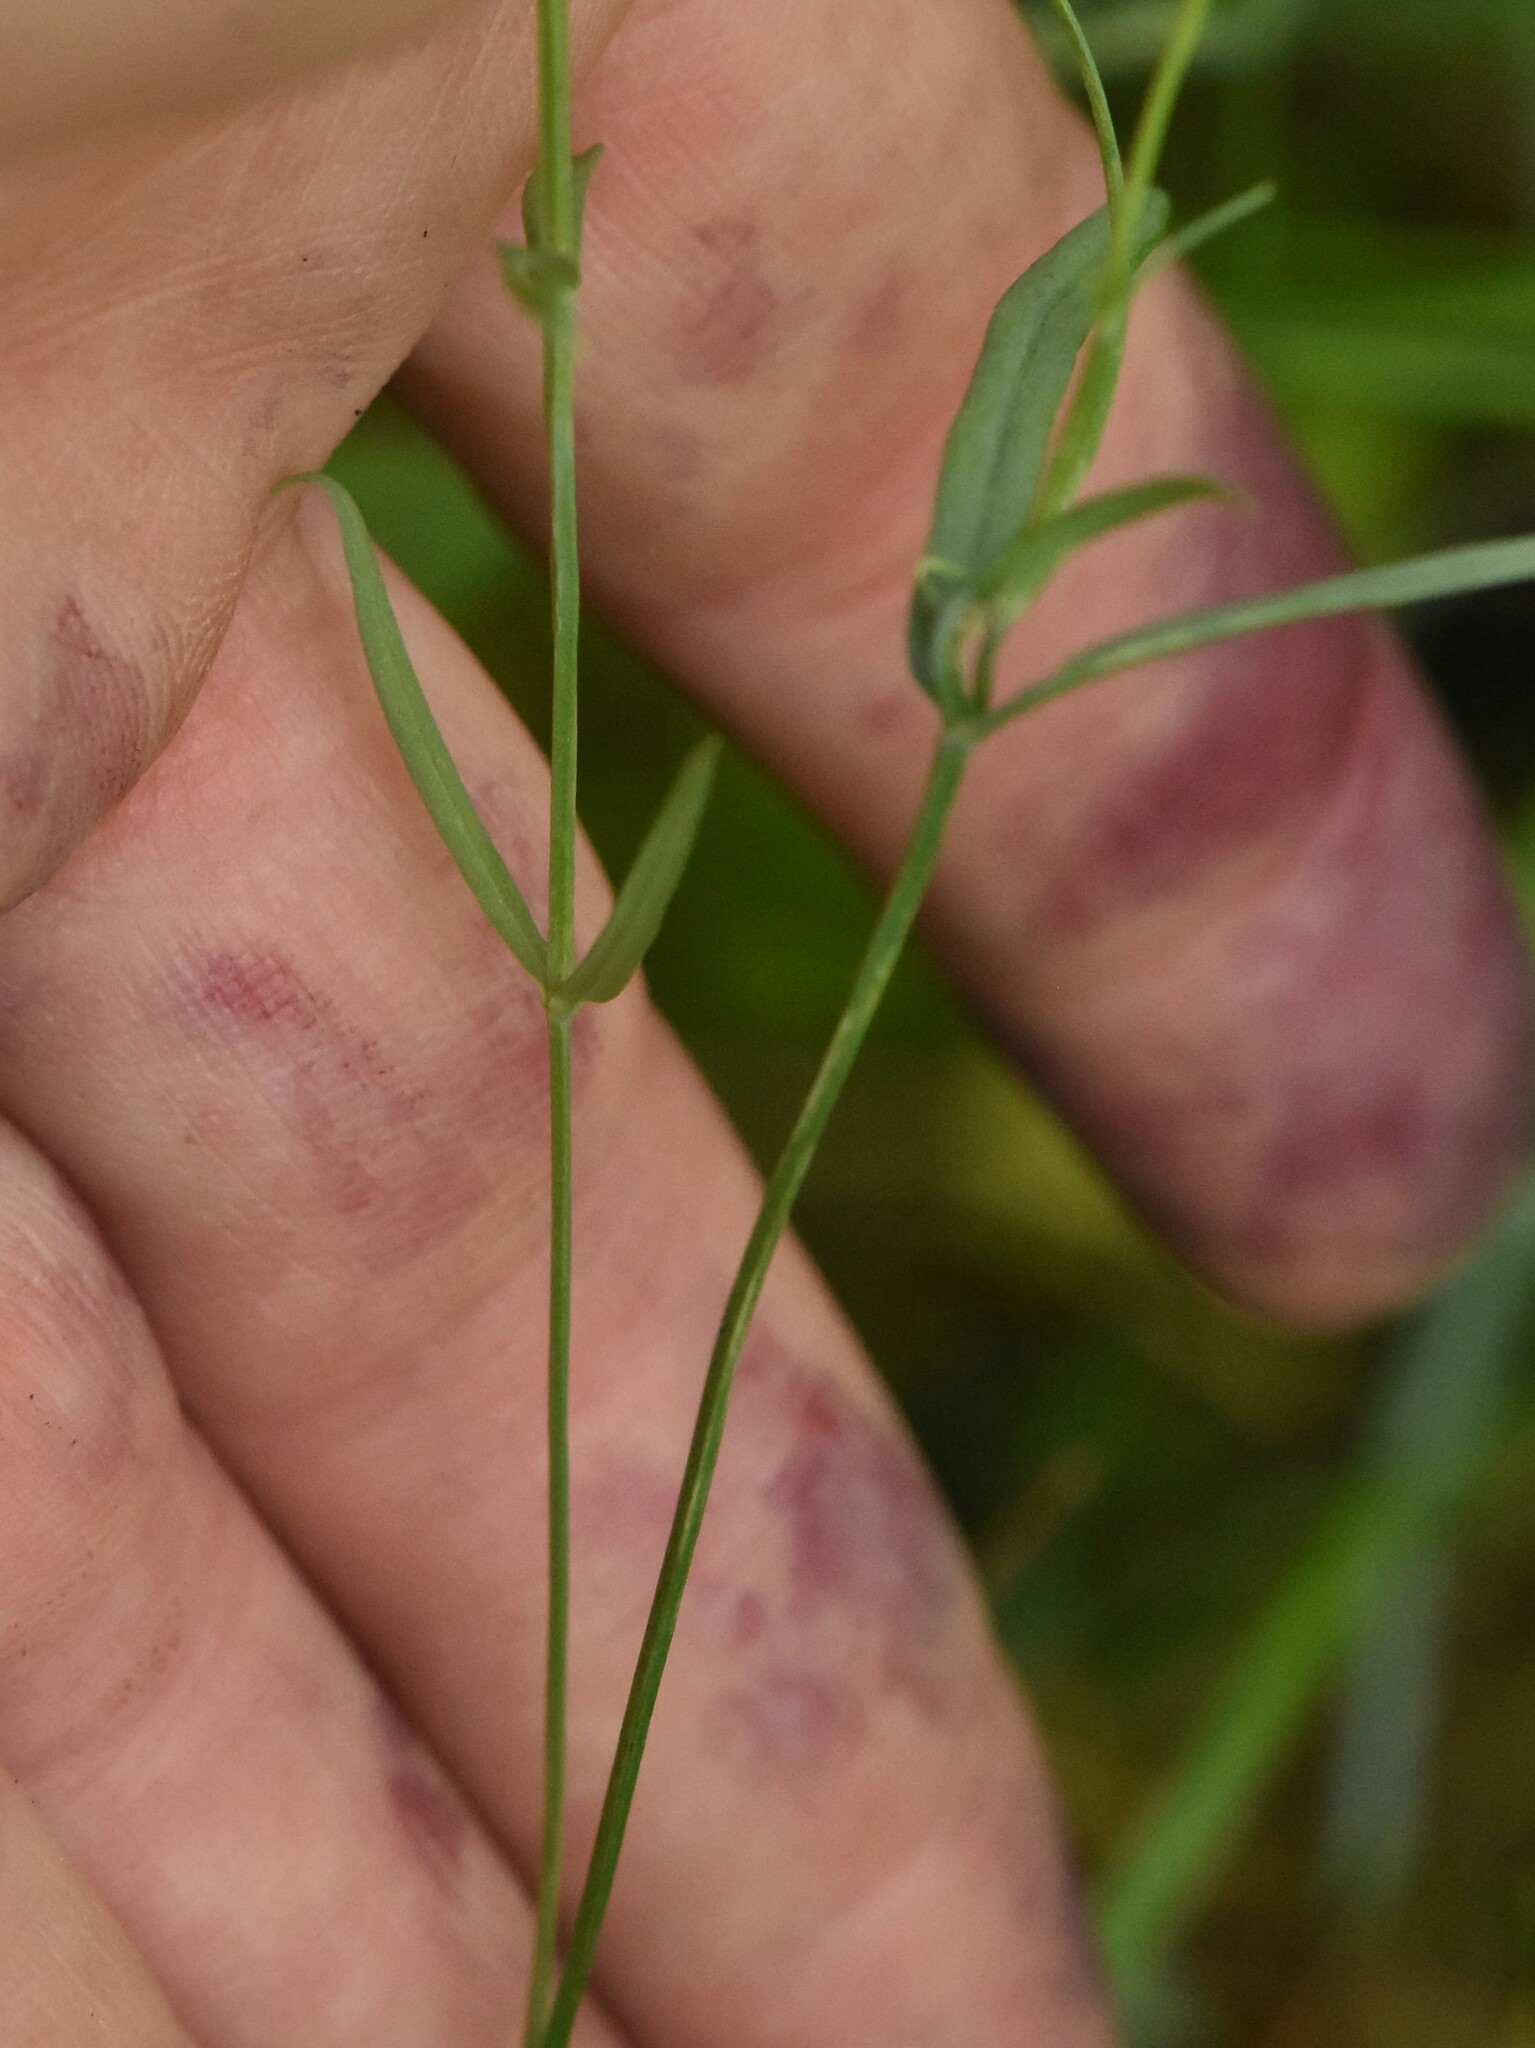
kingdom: Plantae
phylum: Tracheophyta
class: Magnoliopsida
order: Caryophyllales
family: Caryophyllaceae
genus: Stellaria
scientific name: Stellaria palustris
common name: Marsh stitchwort
